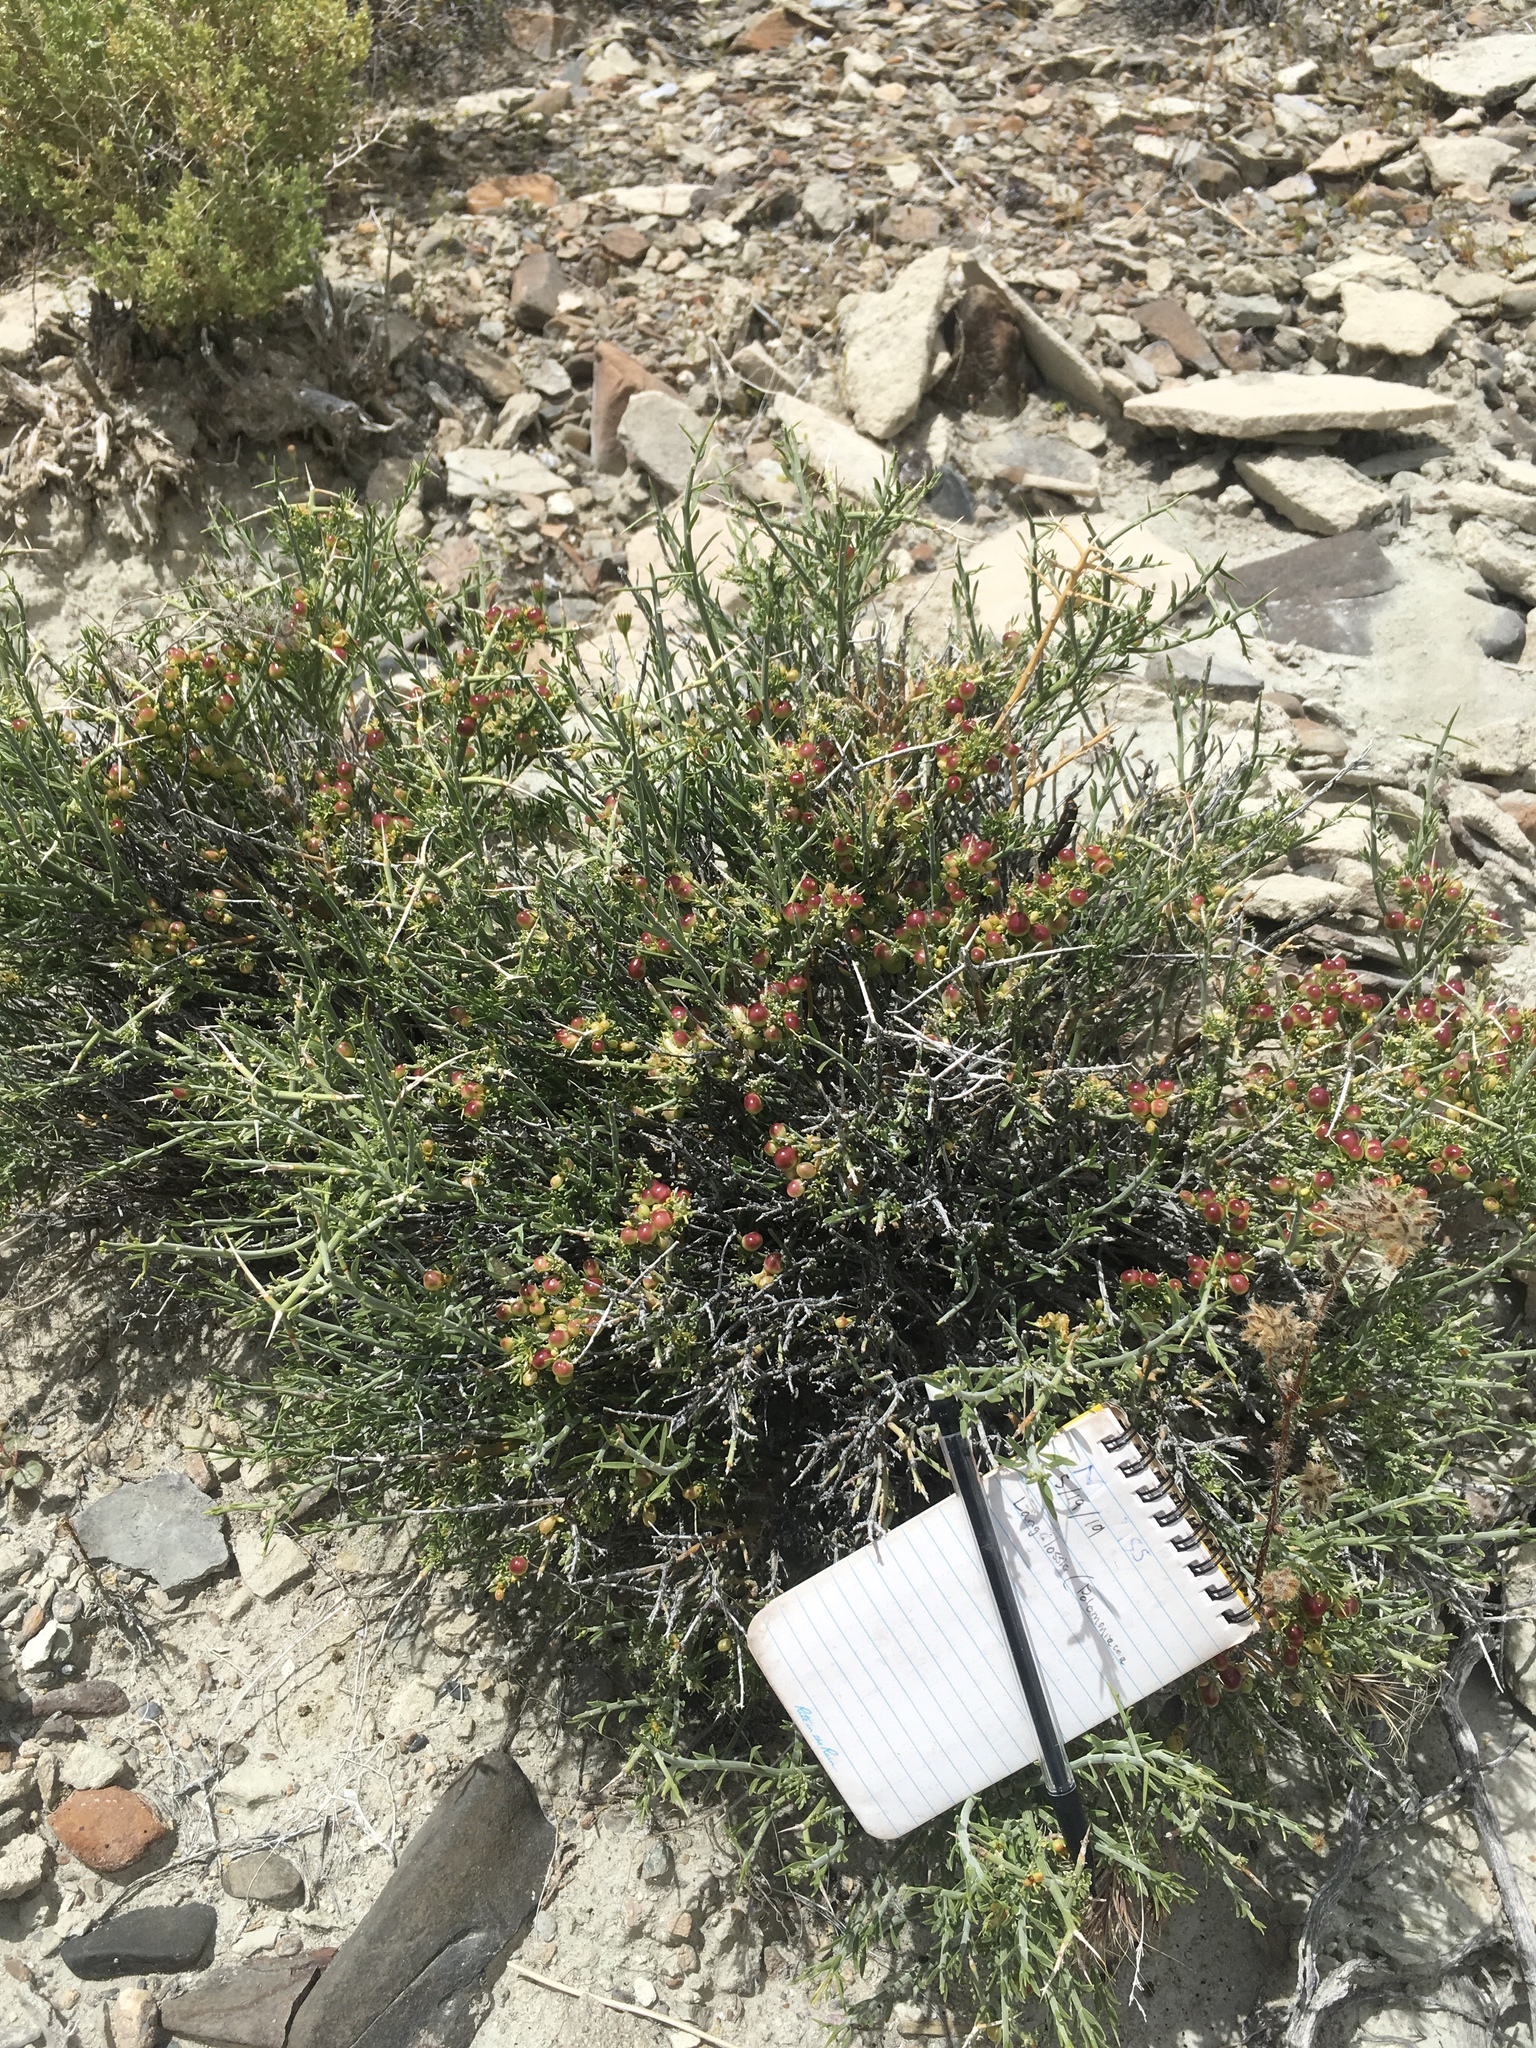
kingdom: Plantae
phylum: Tracheophyta
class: Magnoliopsida
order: Lamiales
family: Oleaceae
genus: Menodora
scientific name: Menodora spinescens
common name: Spiny menodora
